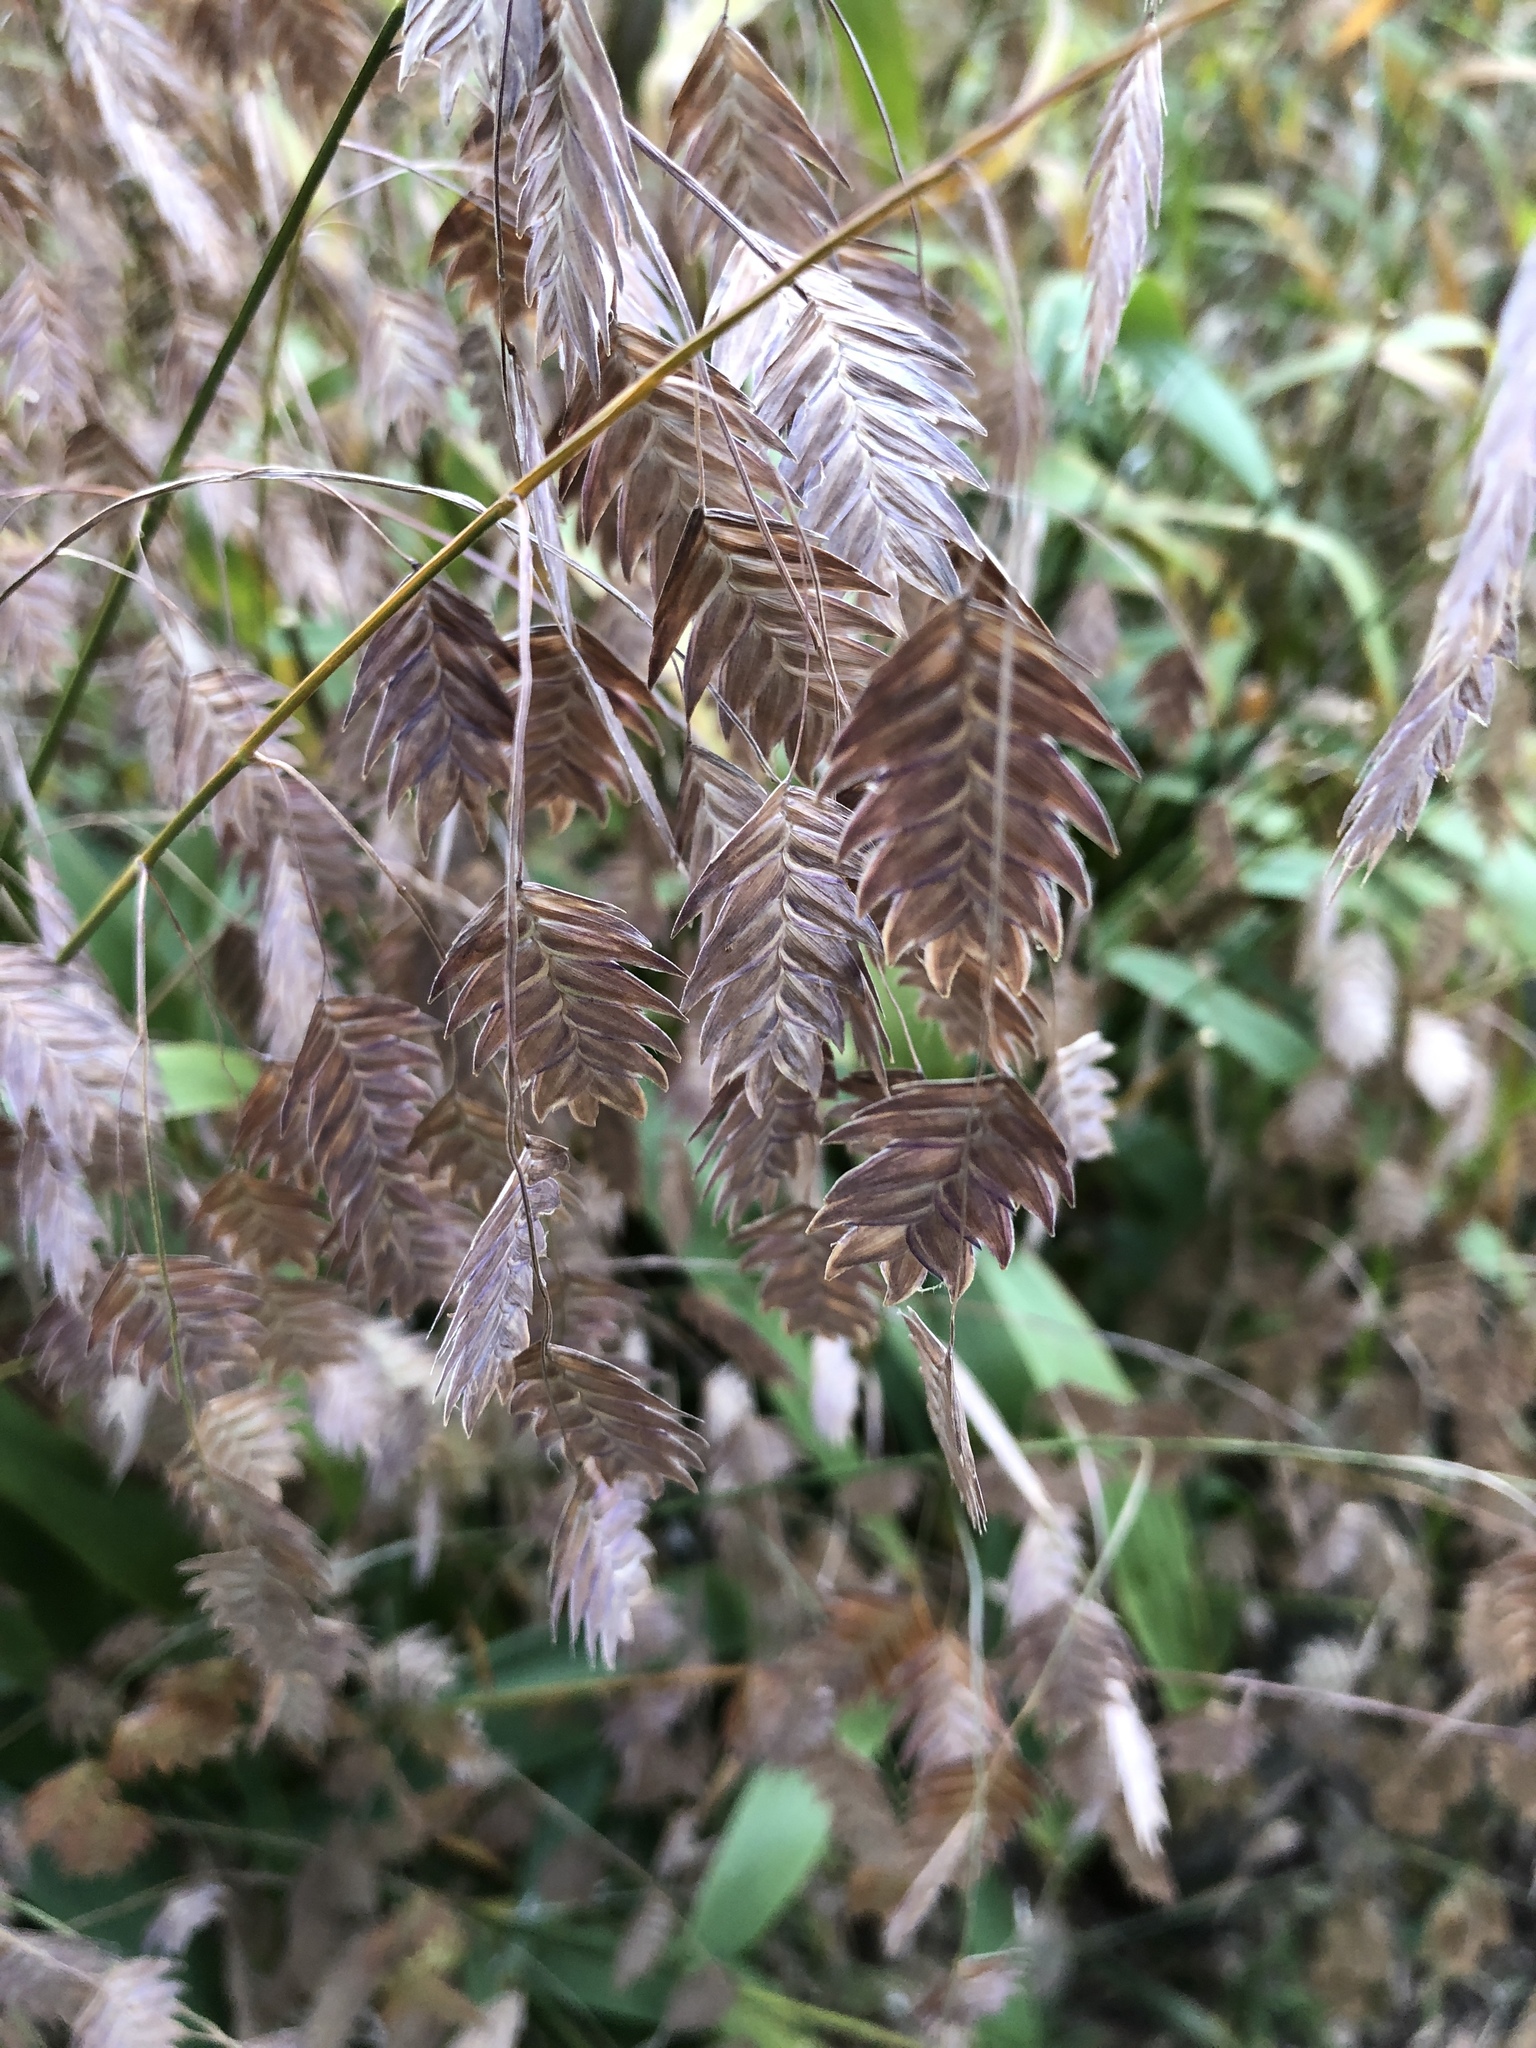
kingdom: Plantae
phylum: Tracheophyta
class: Liliopsida
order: Poales
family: Poaceae
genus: Chasmanthium
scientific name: Chasmanthium latifolium
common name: Broad-leaved chasmanthium
